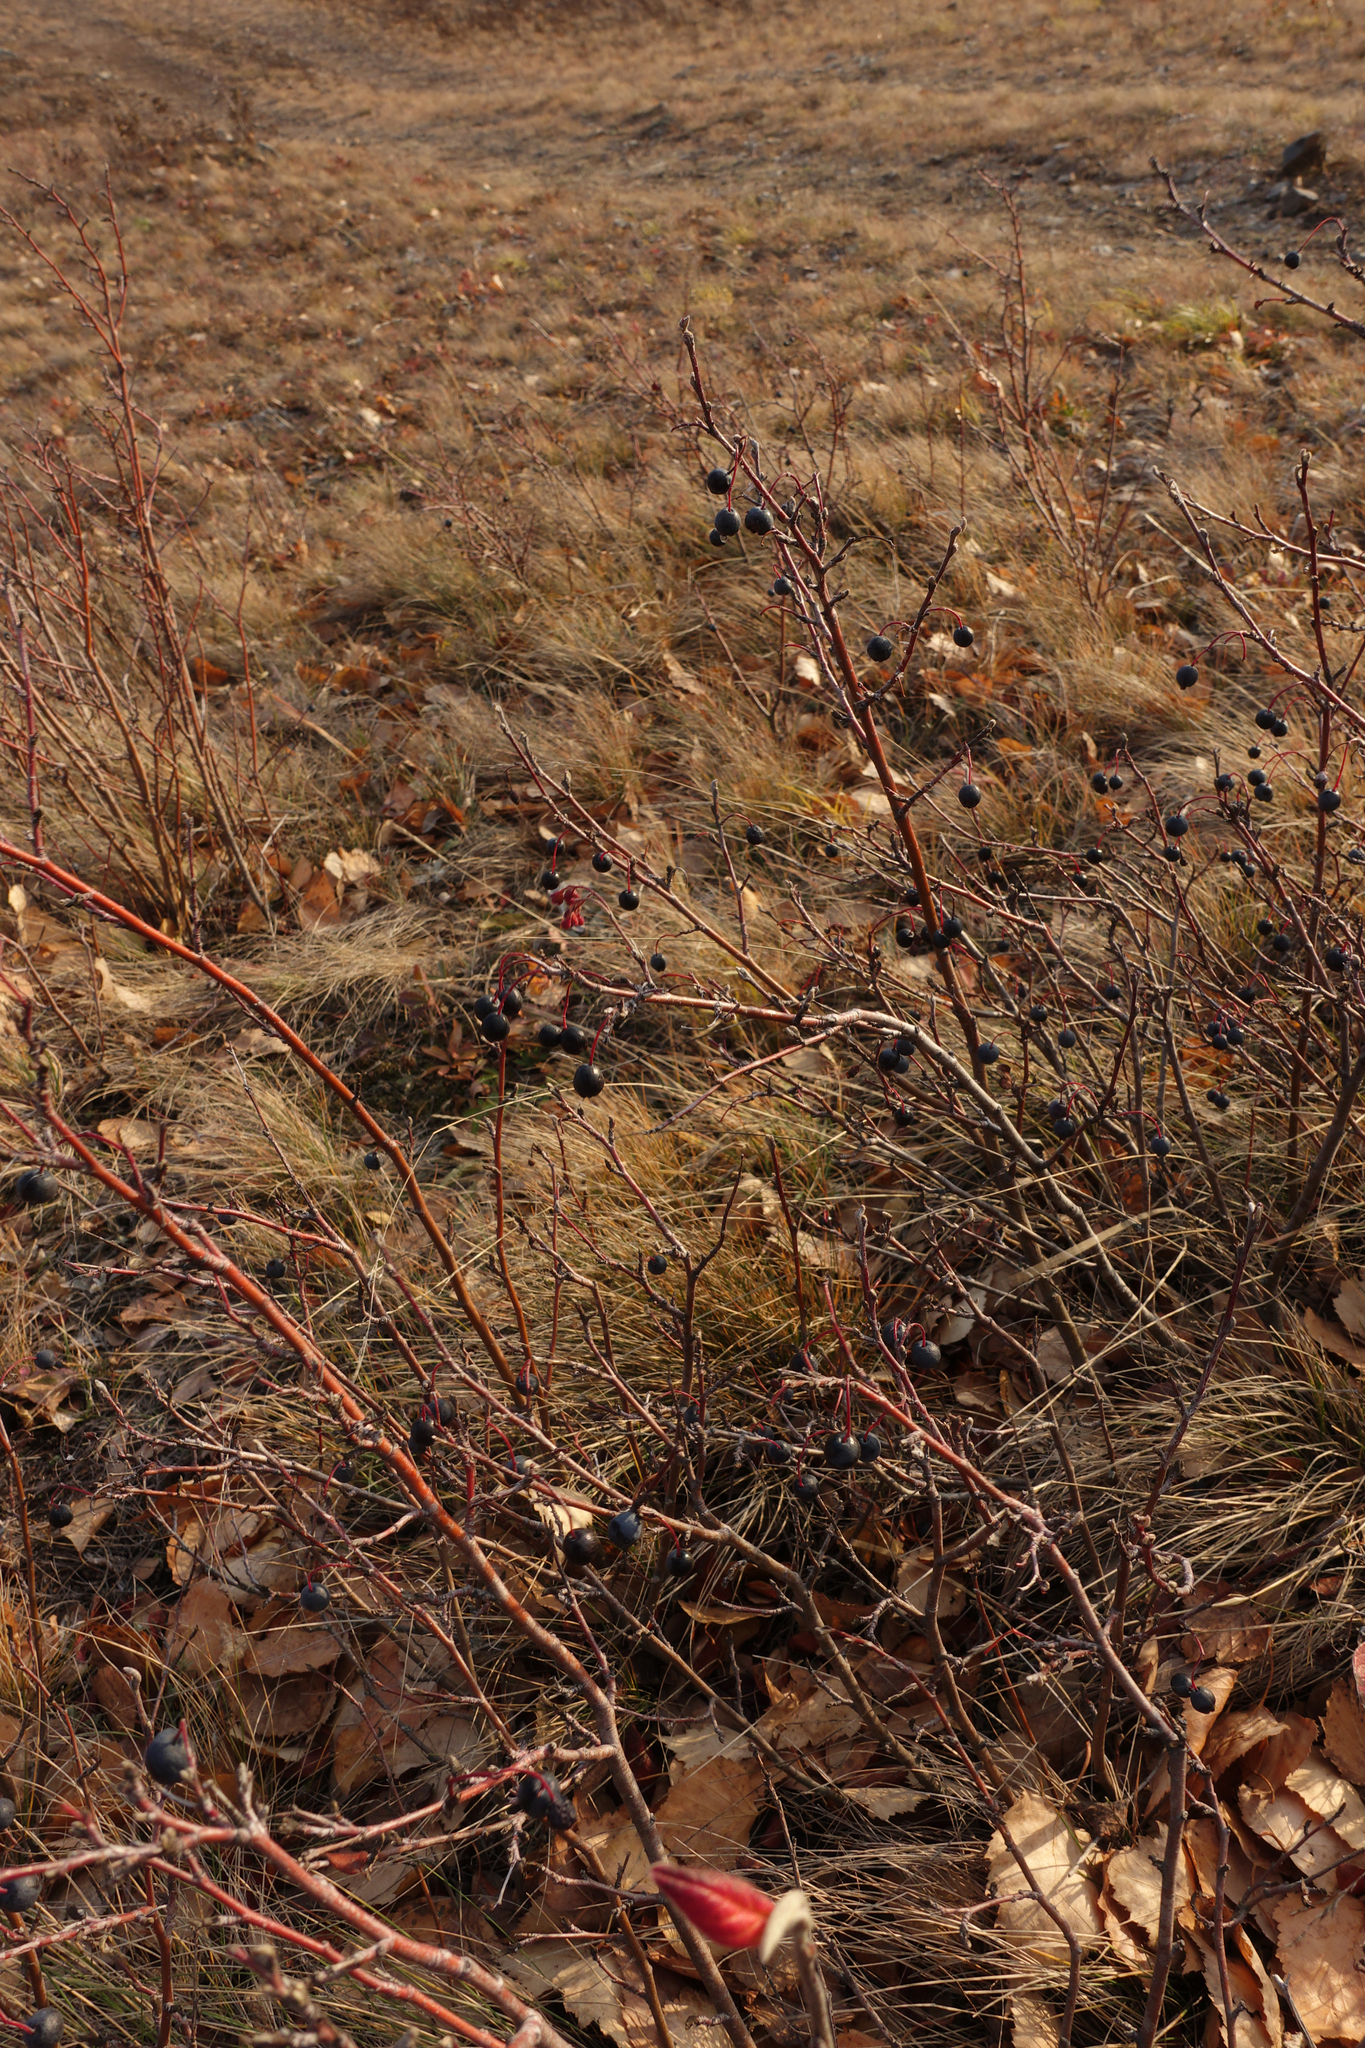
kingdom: Plantae
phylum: Tracheophyta
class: Magnoliopsida
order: Rosales
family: Rosaceae
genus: Cotoneaster
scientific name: Cotoneaster melanocarpus
